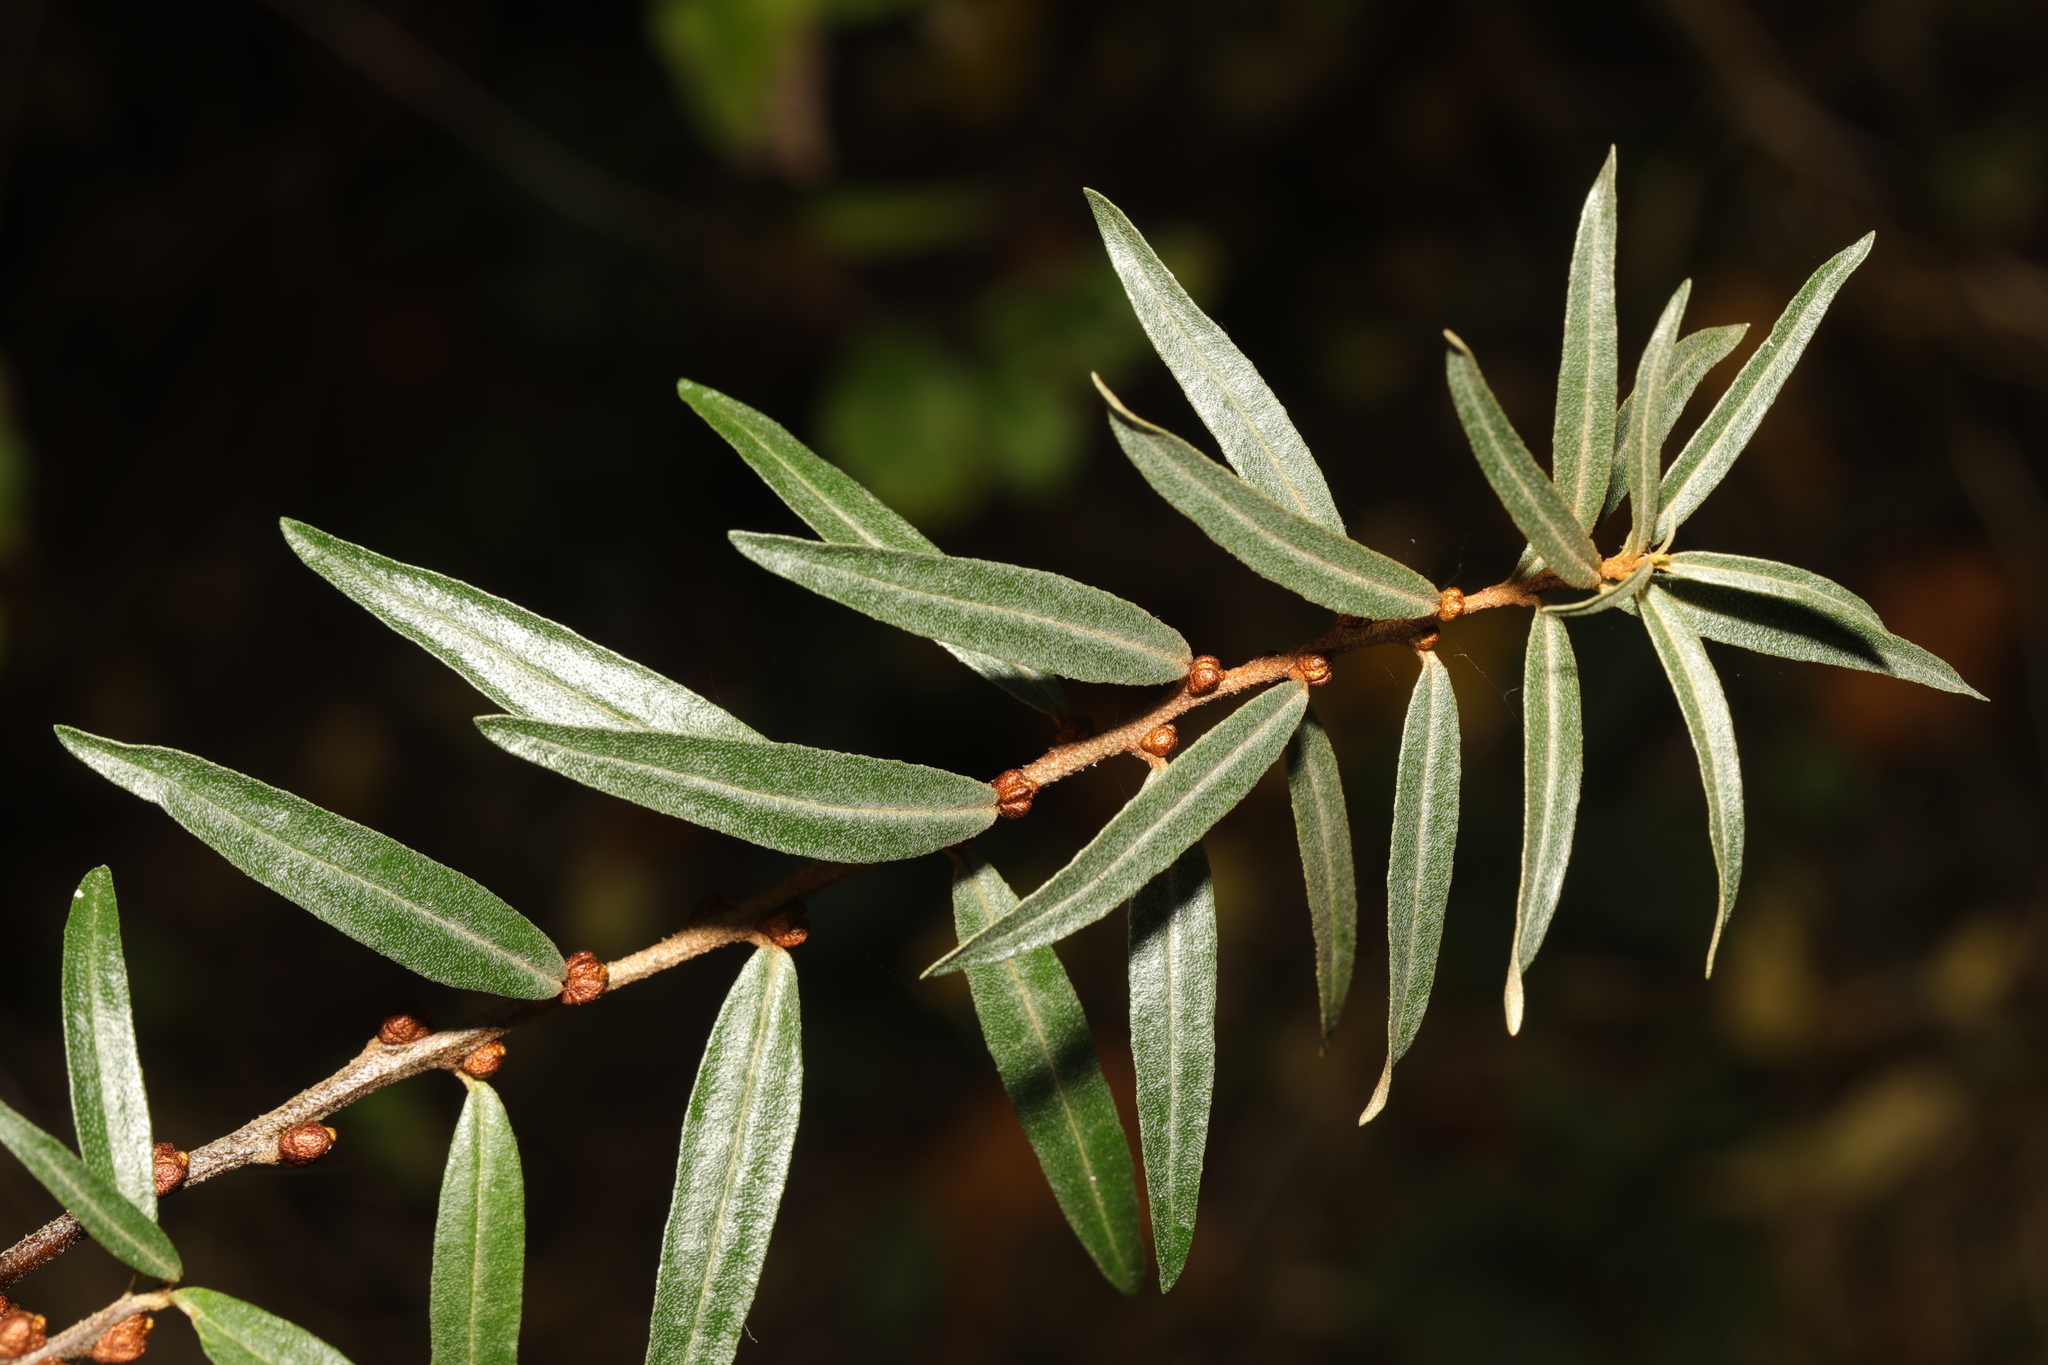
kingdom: Plantae
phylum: Tracheophyta
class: Magnoliopsida
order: Rosales
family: Elaeagnaceae
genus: Hippophae
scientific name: Hippophae rhamnoides
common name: Sea-buckthorn
